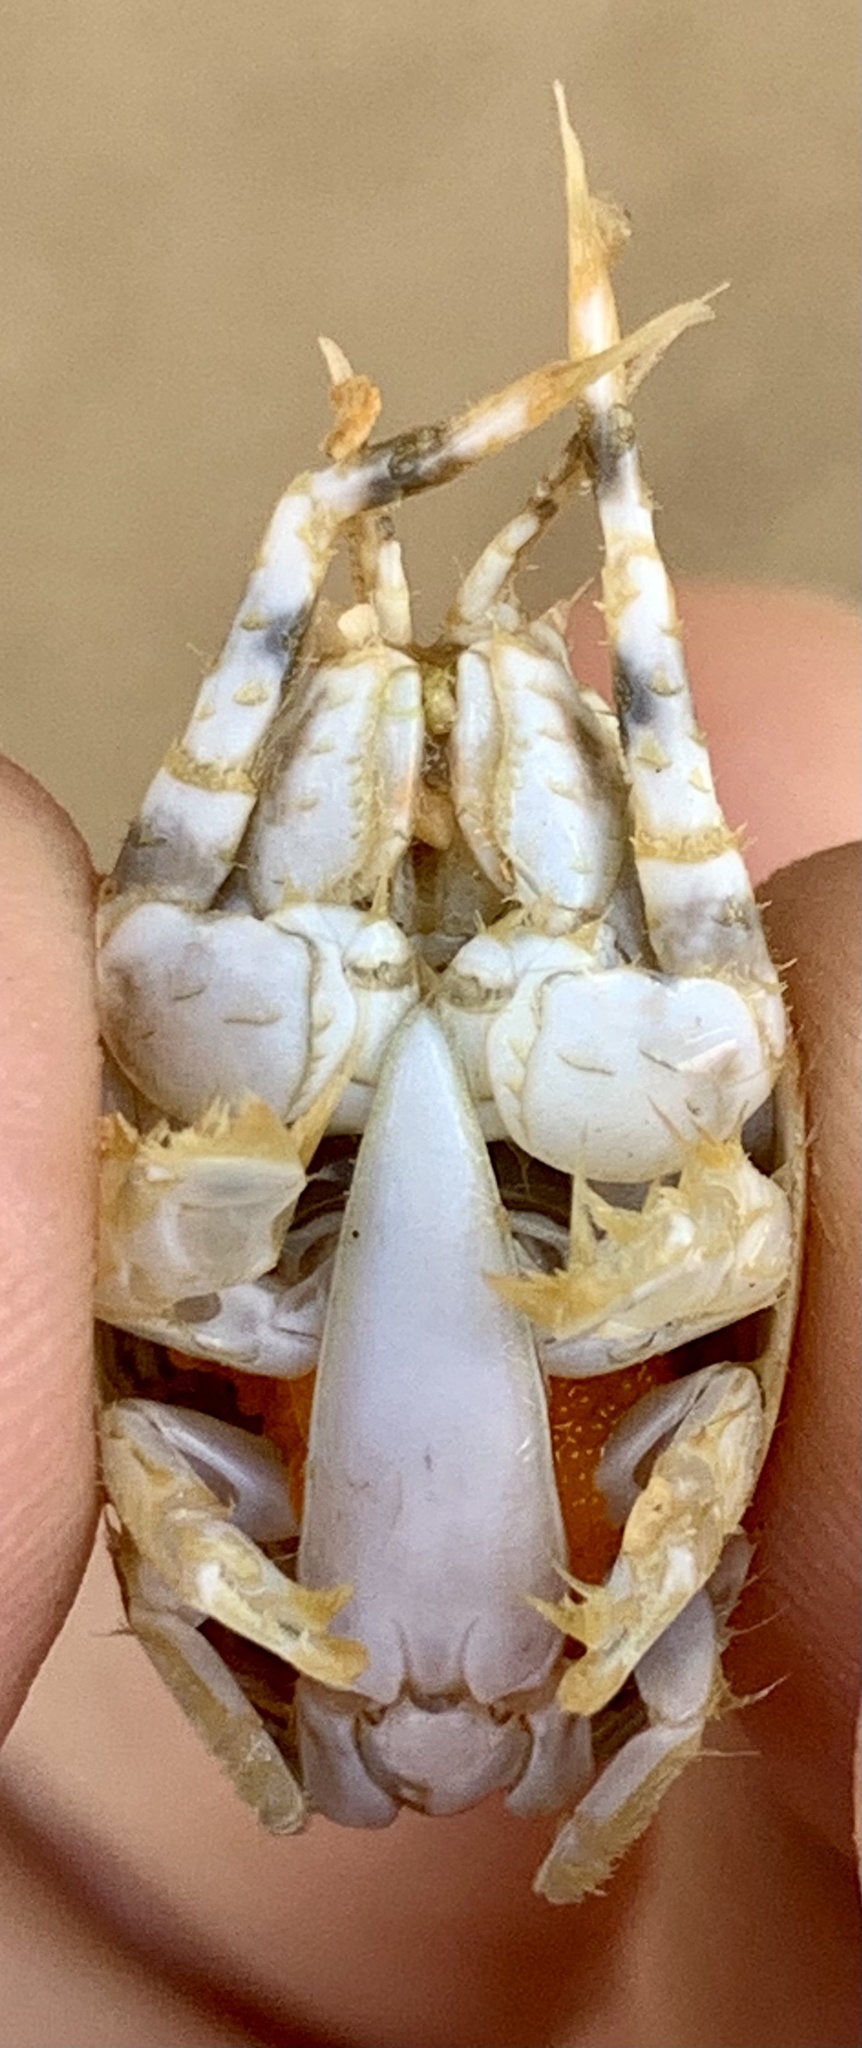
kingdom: Animalia
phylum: Arthropoda
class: Malacostraca
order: Decapoda
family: Hippidae
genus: Hippa
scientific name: Hippa marmorata
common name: Pacific mole crab
